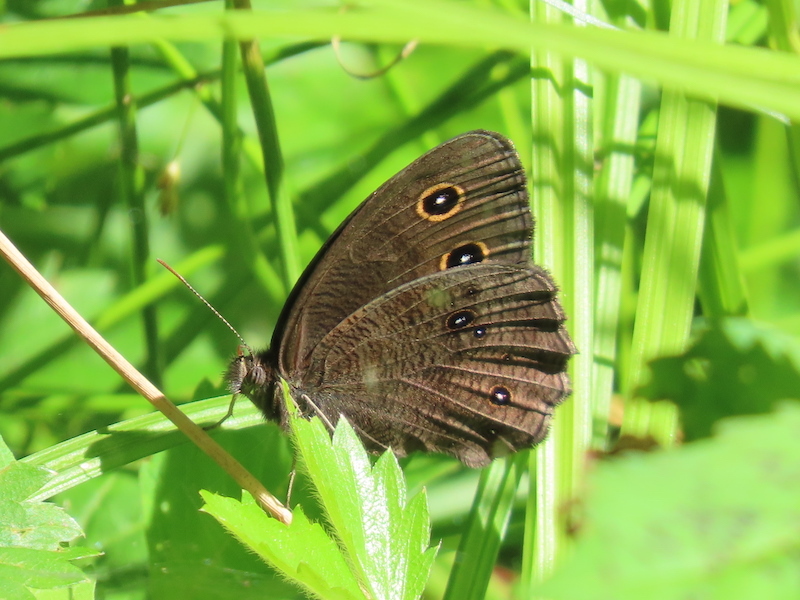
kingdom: Animalia
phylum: Arthropoda
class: Insecta
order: Lepidoptera
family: Nymphalidae
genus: Cercyonis
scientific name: Cercyonis pegala
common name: Common wood-nymph
